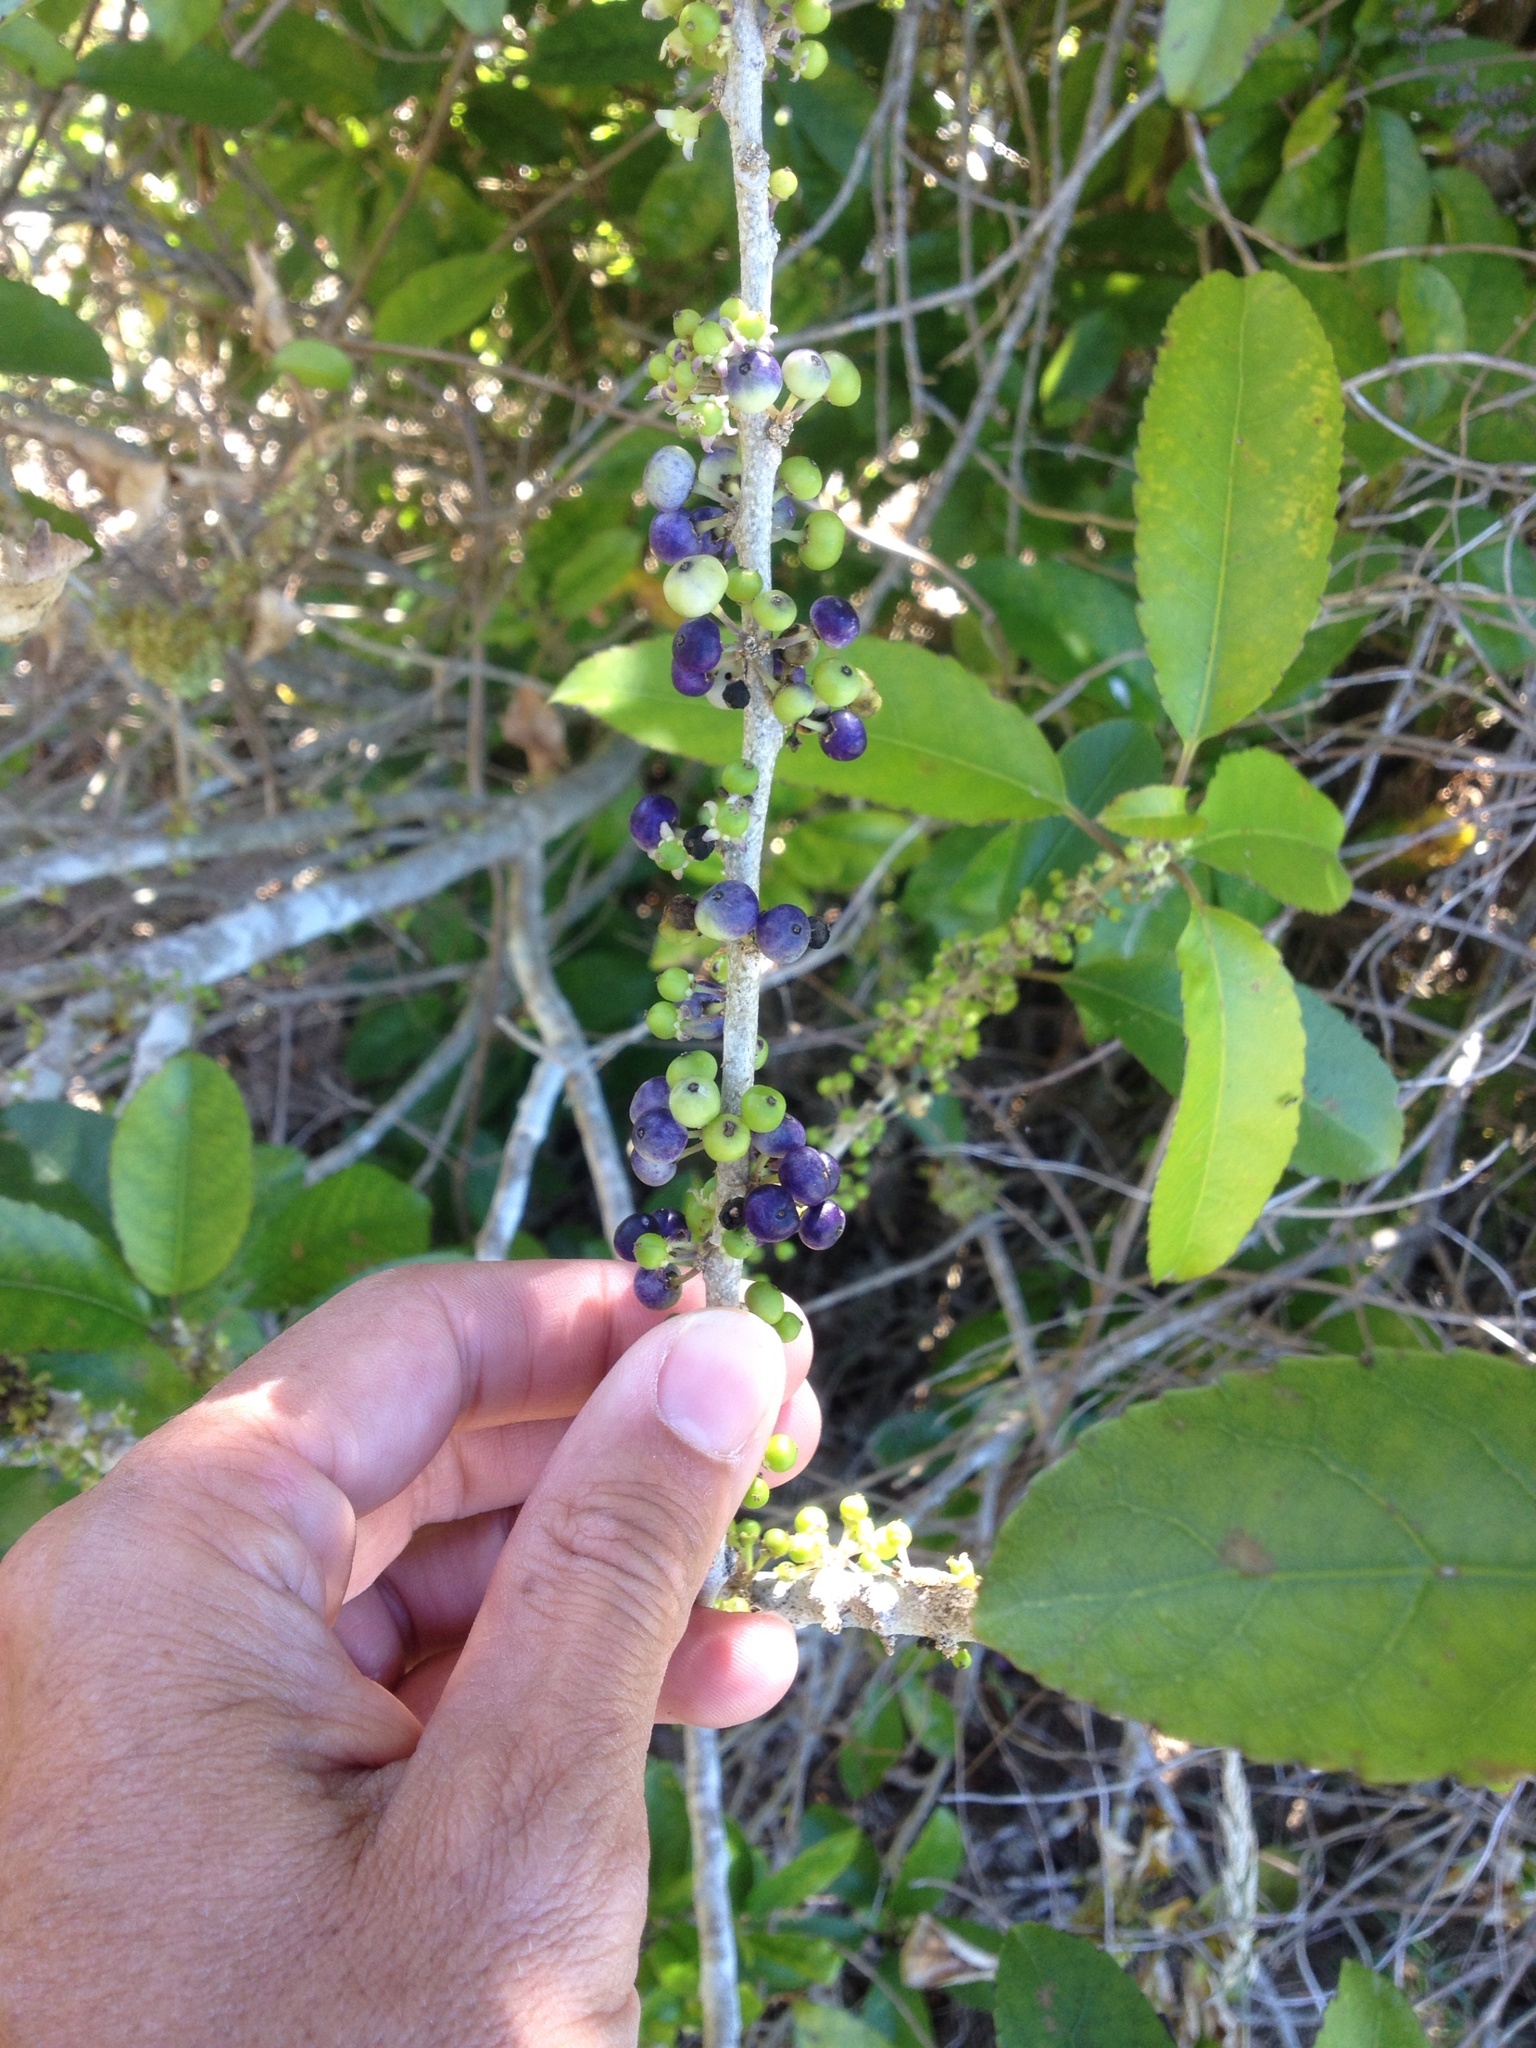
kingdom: Plantae
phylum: Tracheophyta
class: Magnoliopsida
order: Malpighiales
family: Violaceae
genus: Melicytus
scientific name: Melicytus ramiflorus
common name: Mahoe
